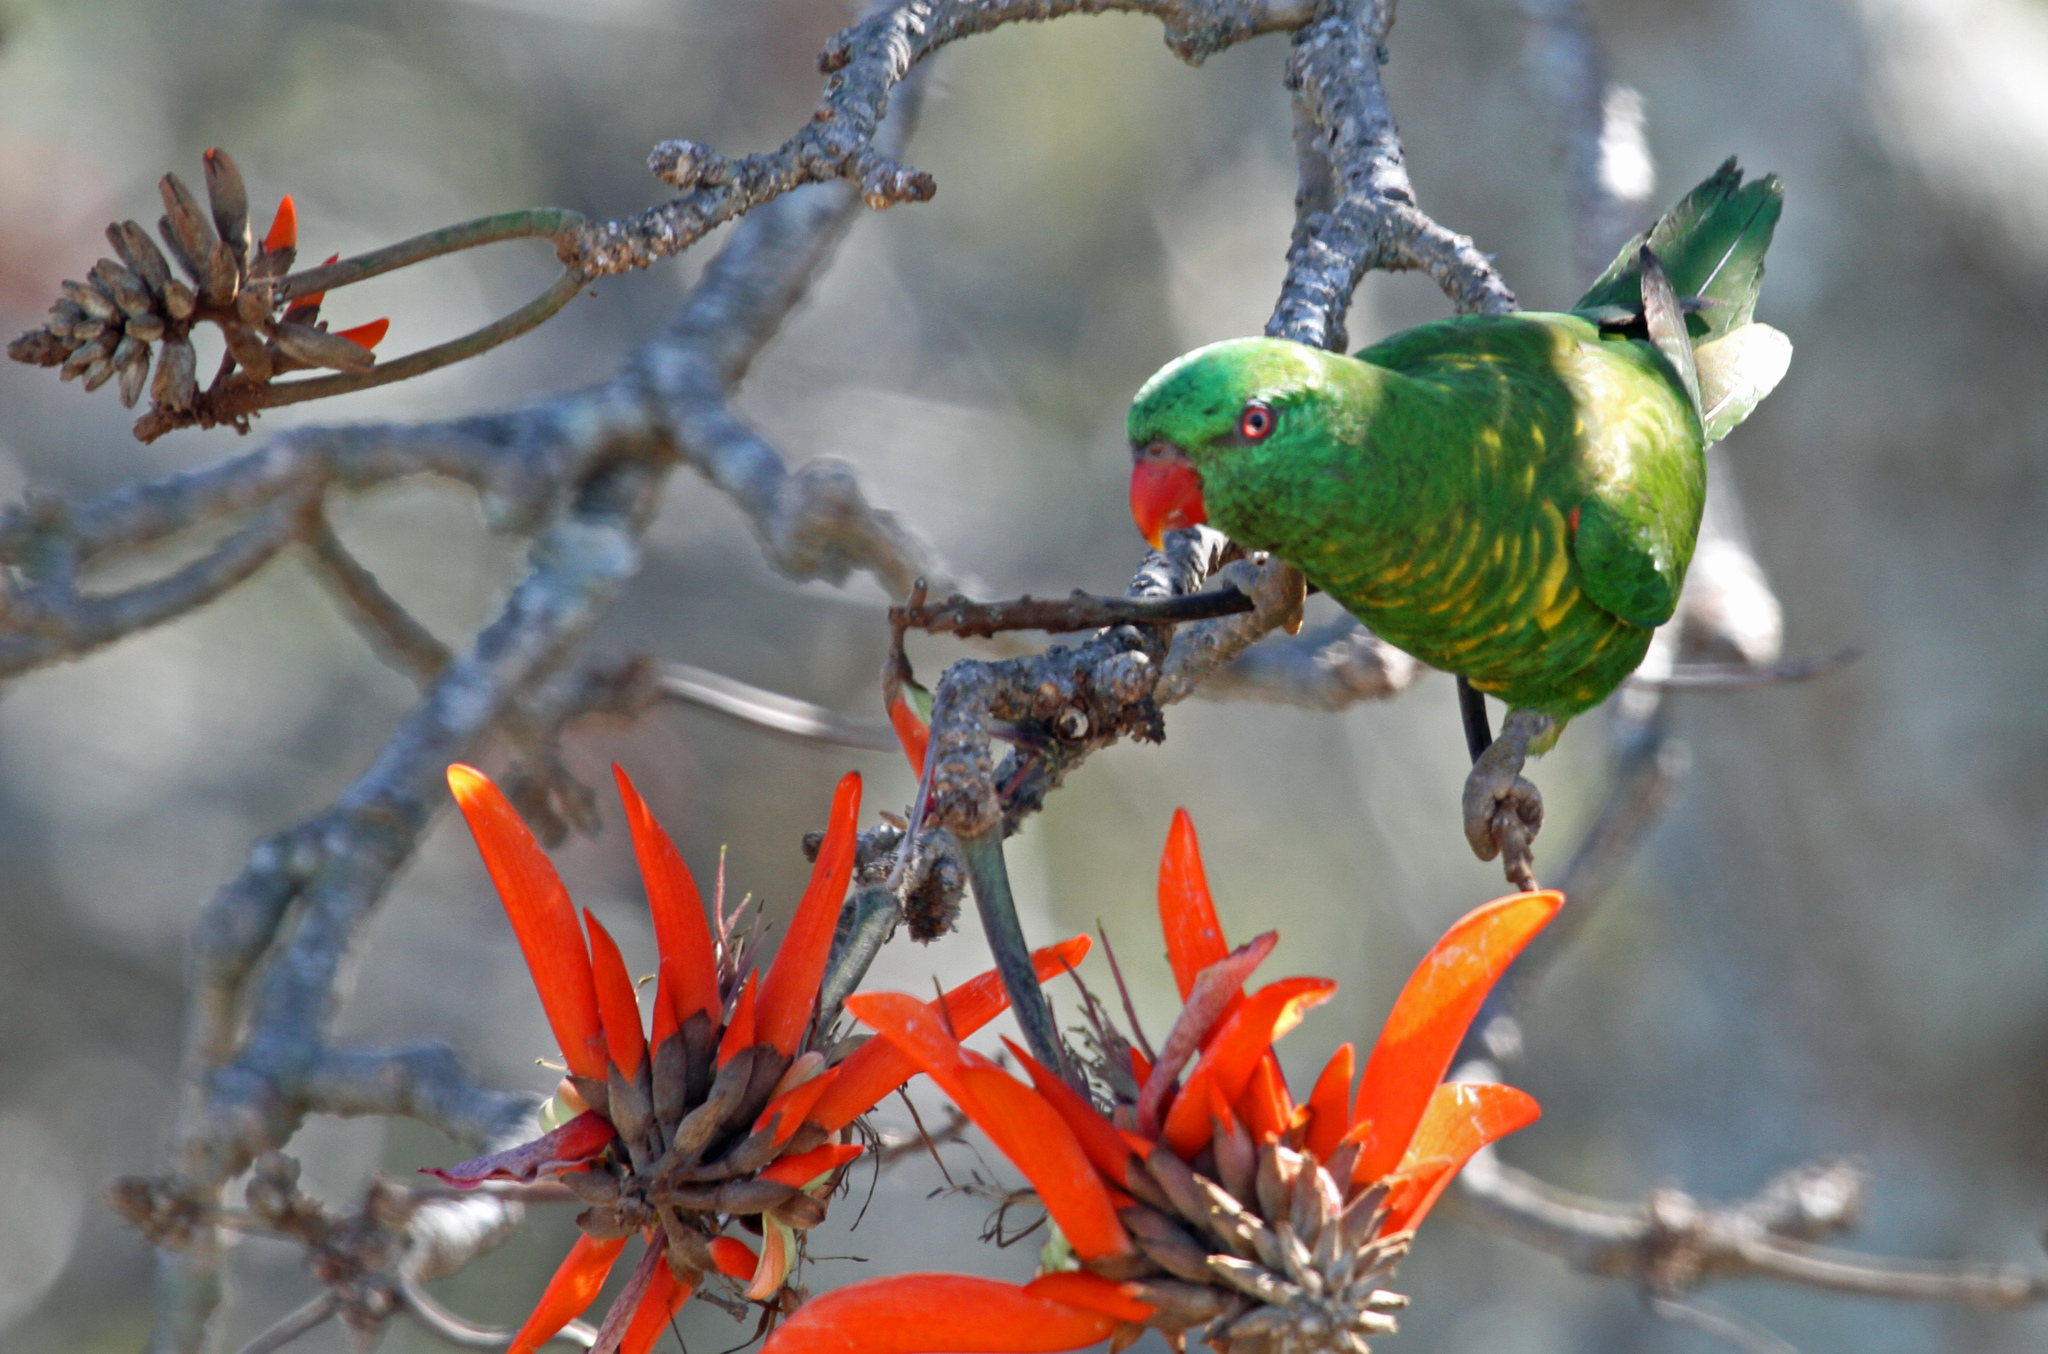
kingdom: Animalia
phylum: Chordata
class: Aves
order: Psittaciformes
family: Psittacidae
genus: Trichoglossus
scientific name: Trichoglossus chlorolepidotus
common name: Scaly-breasted lorikeet
